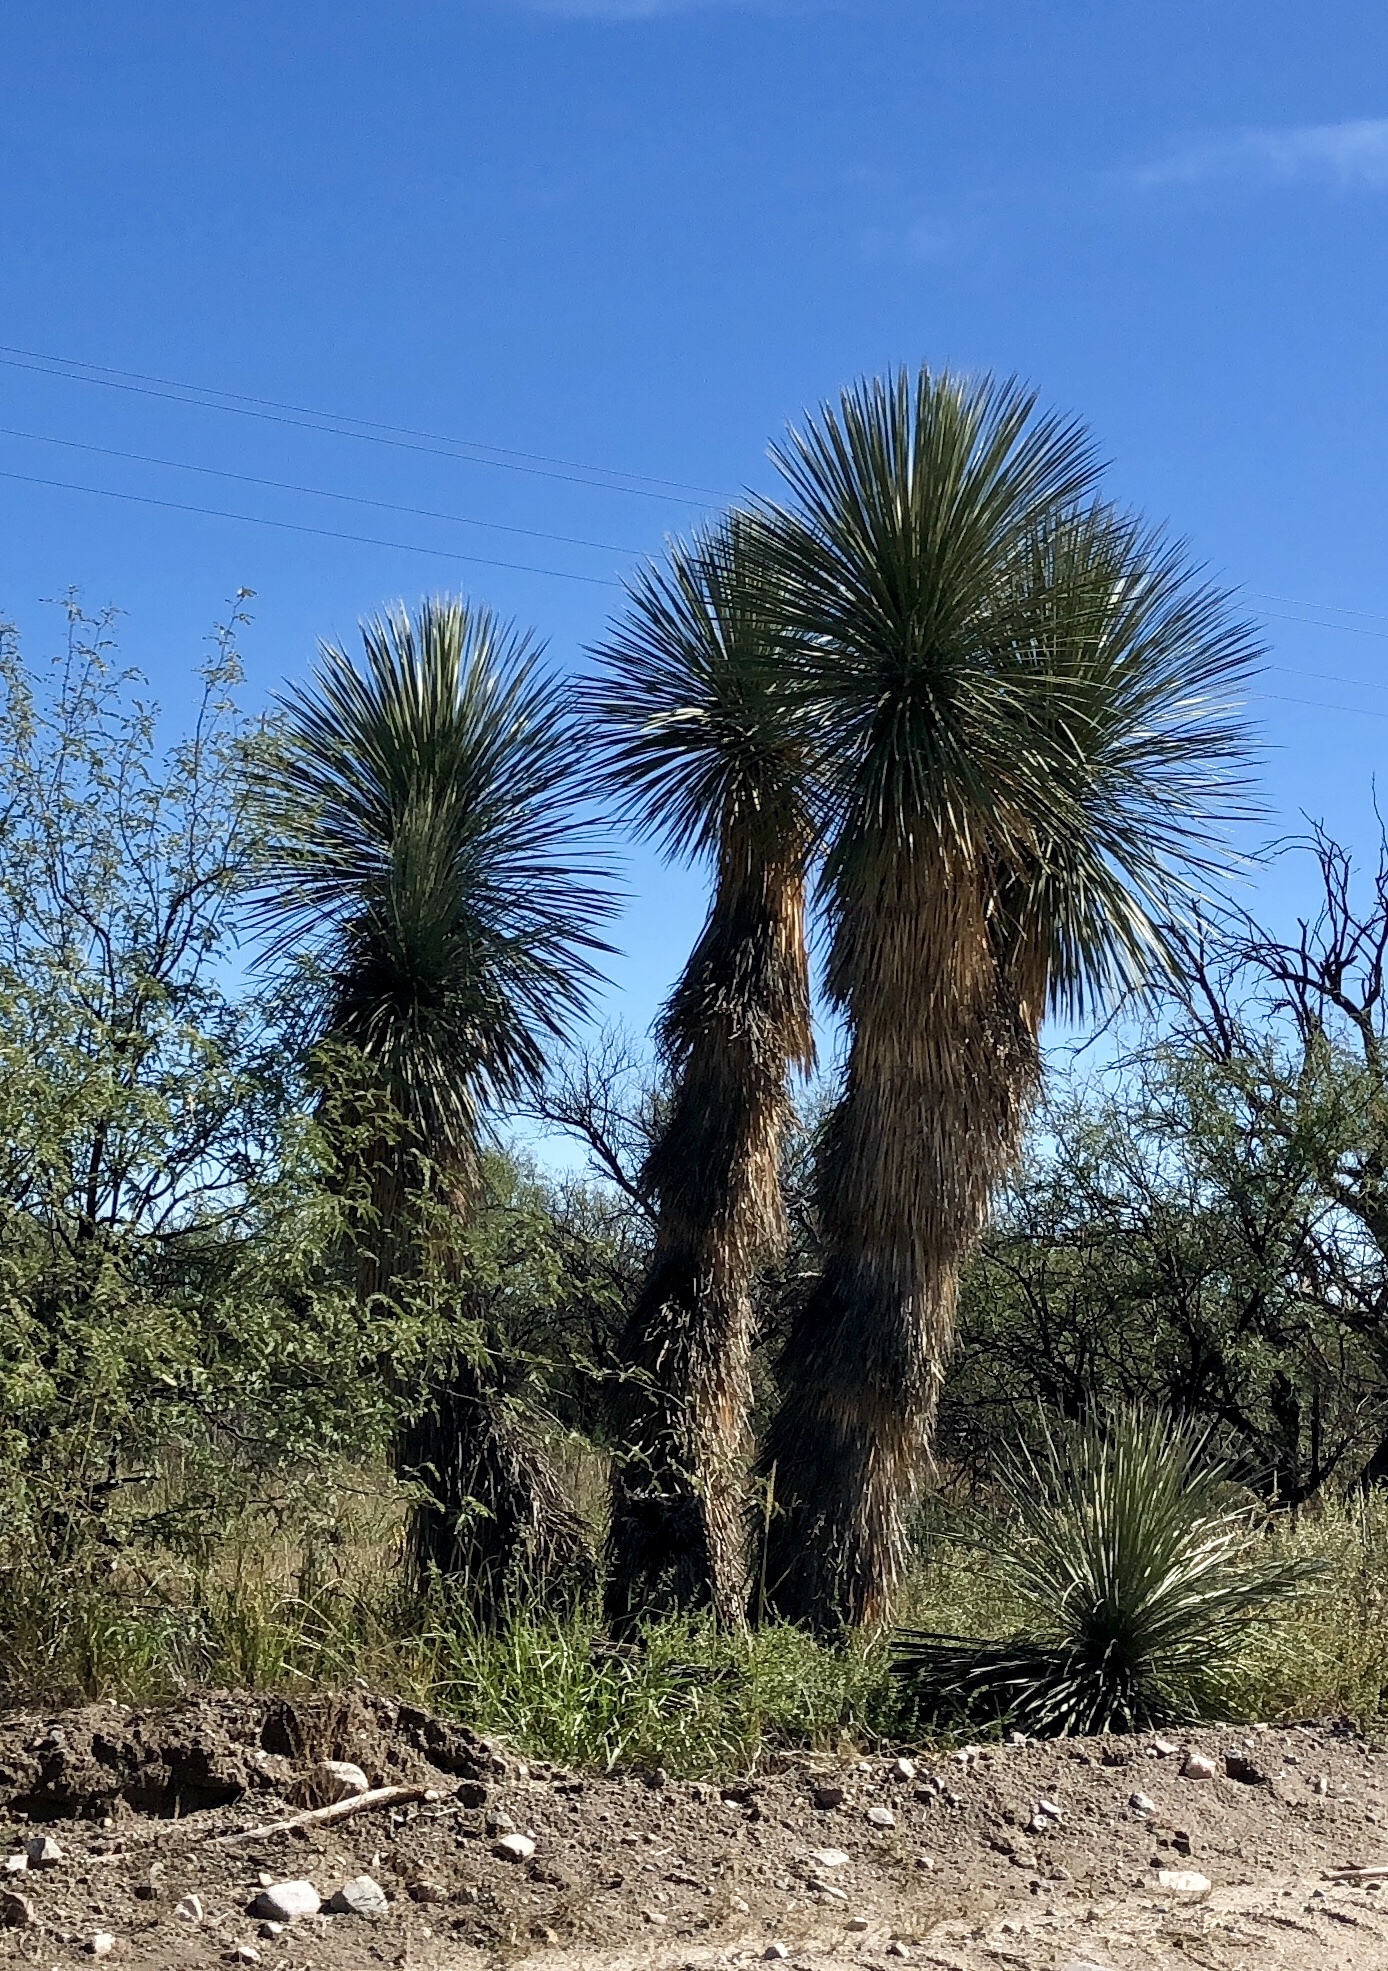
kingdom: Plantae
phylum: Tracheophyta
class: Liliopsida
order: Asparagales
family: Asparagaceae
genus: Yucca
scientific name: Yucca elata
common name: Palmella
